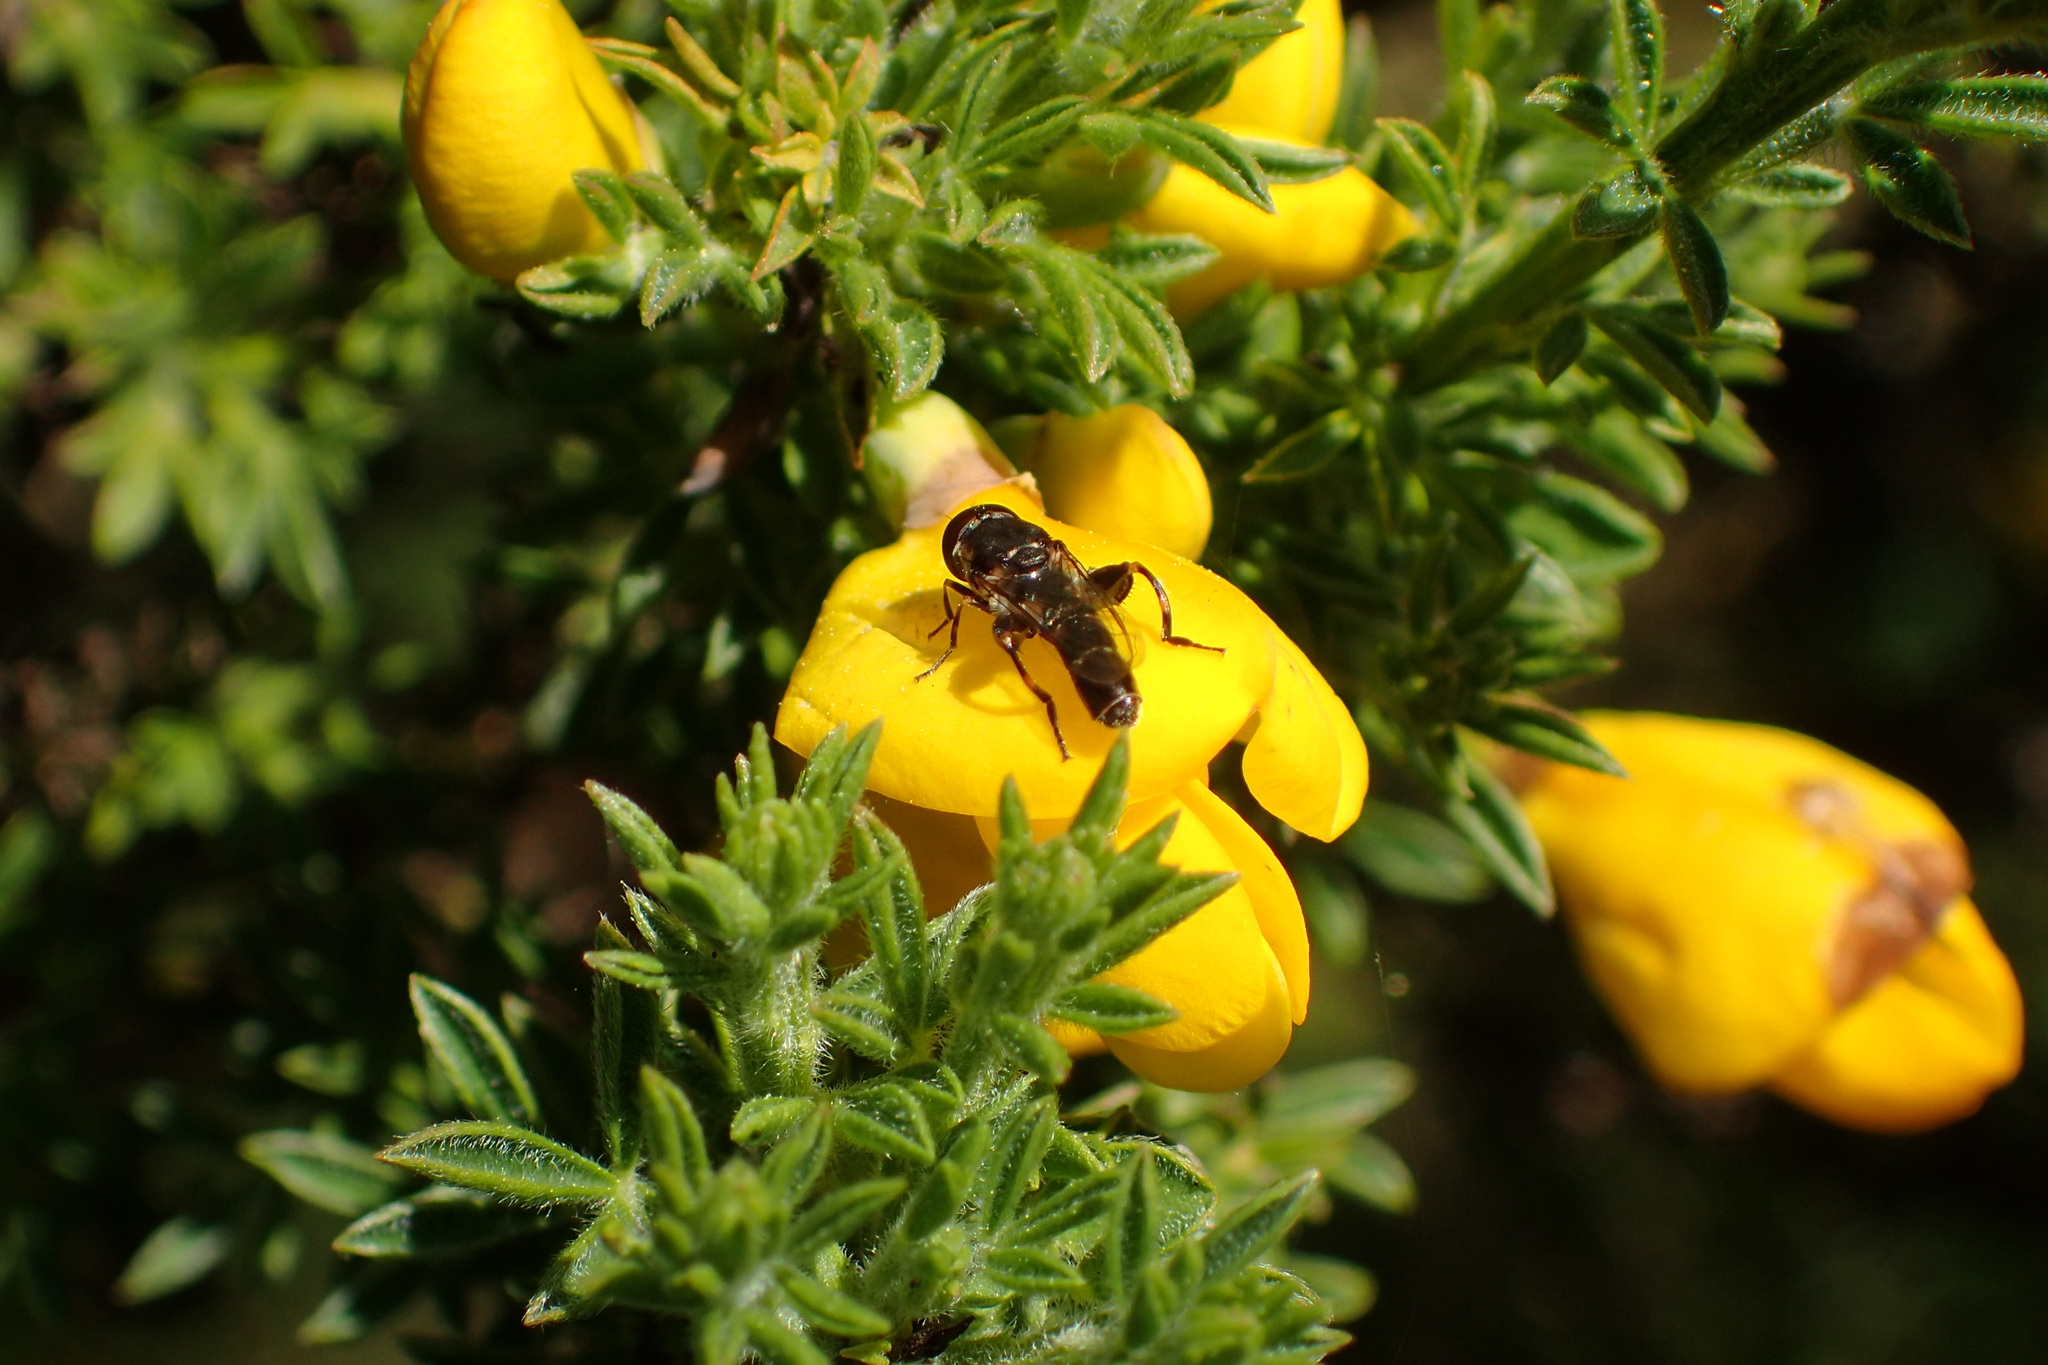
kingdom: Animalia
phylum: Arthropoda
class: Insecta
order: Diptera
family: Syrphidae
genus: Syritta
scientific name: Syritta pipiens
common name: Hover fly
